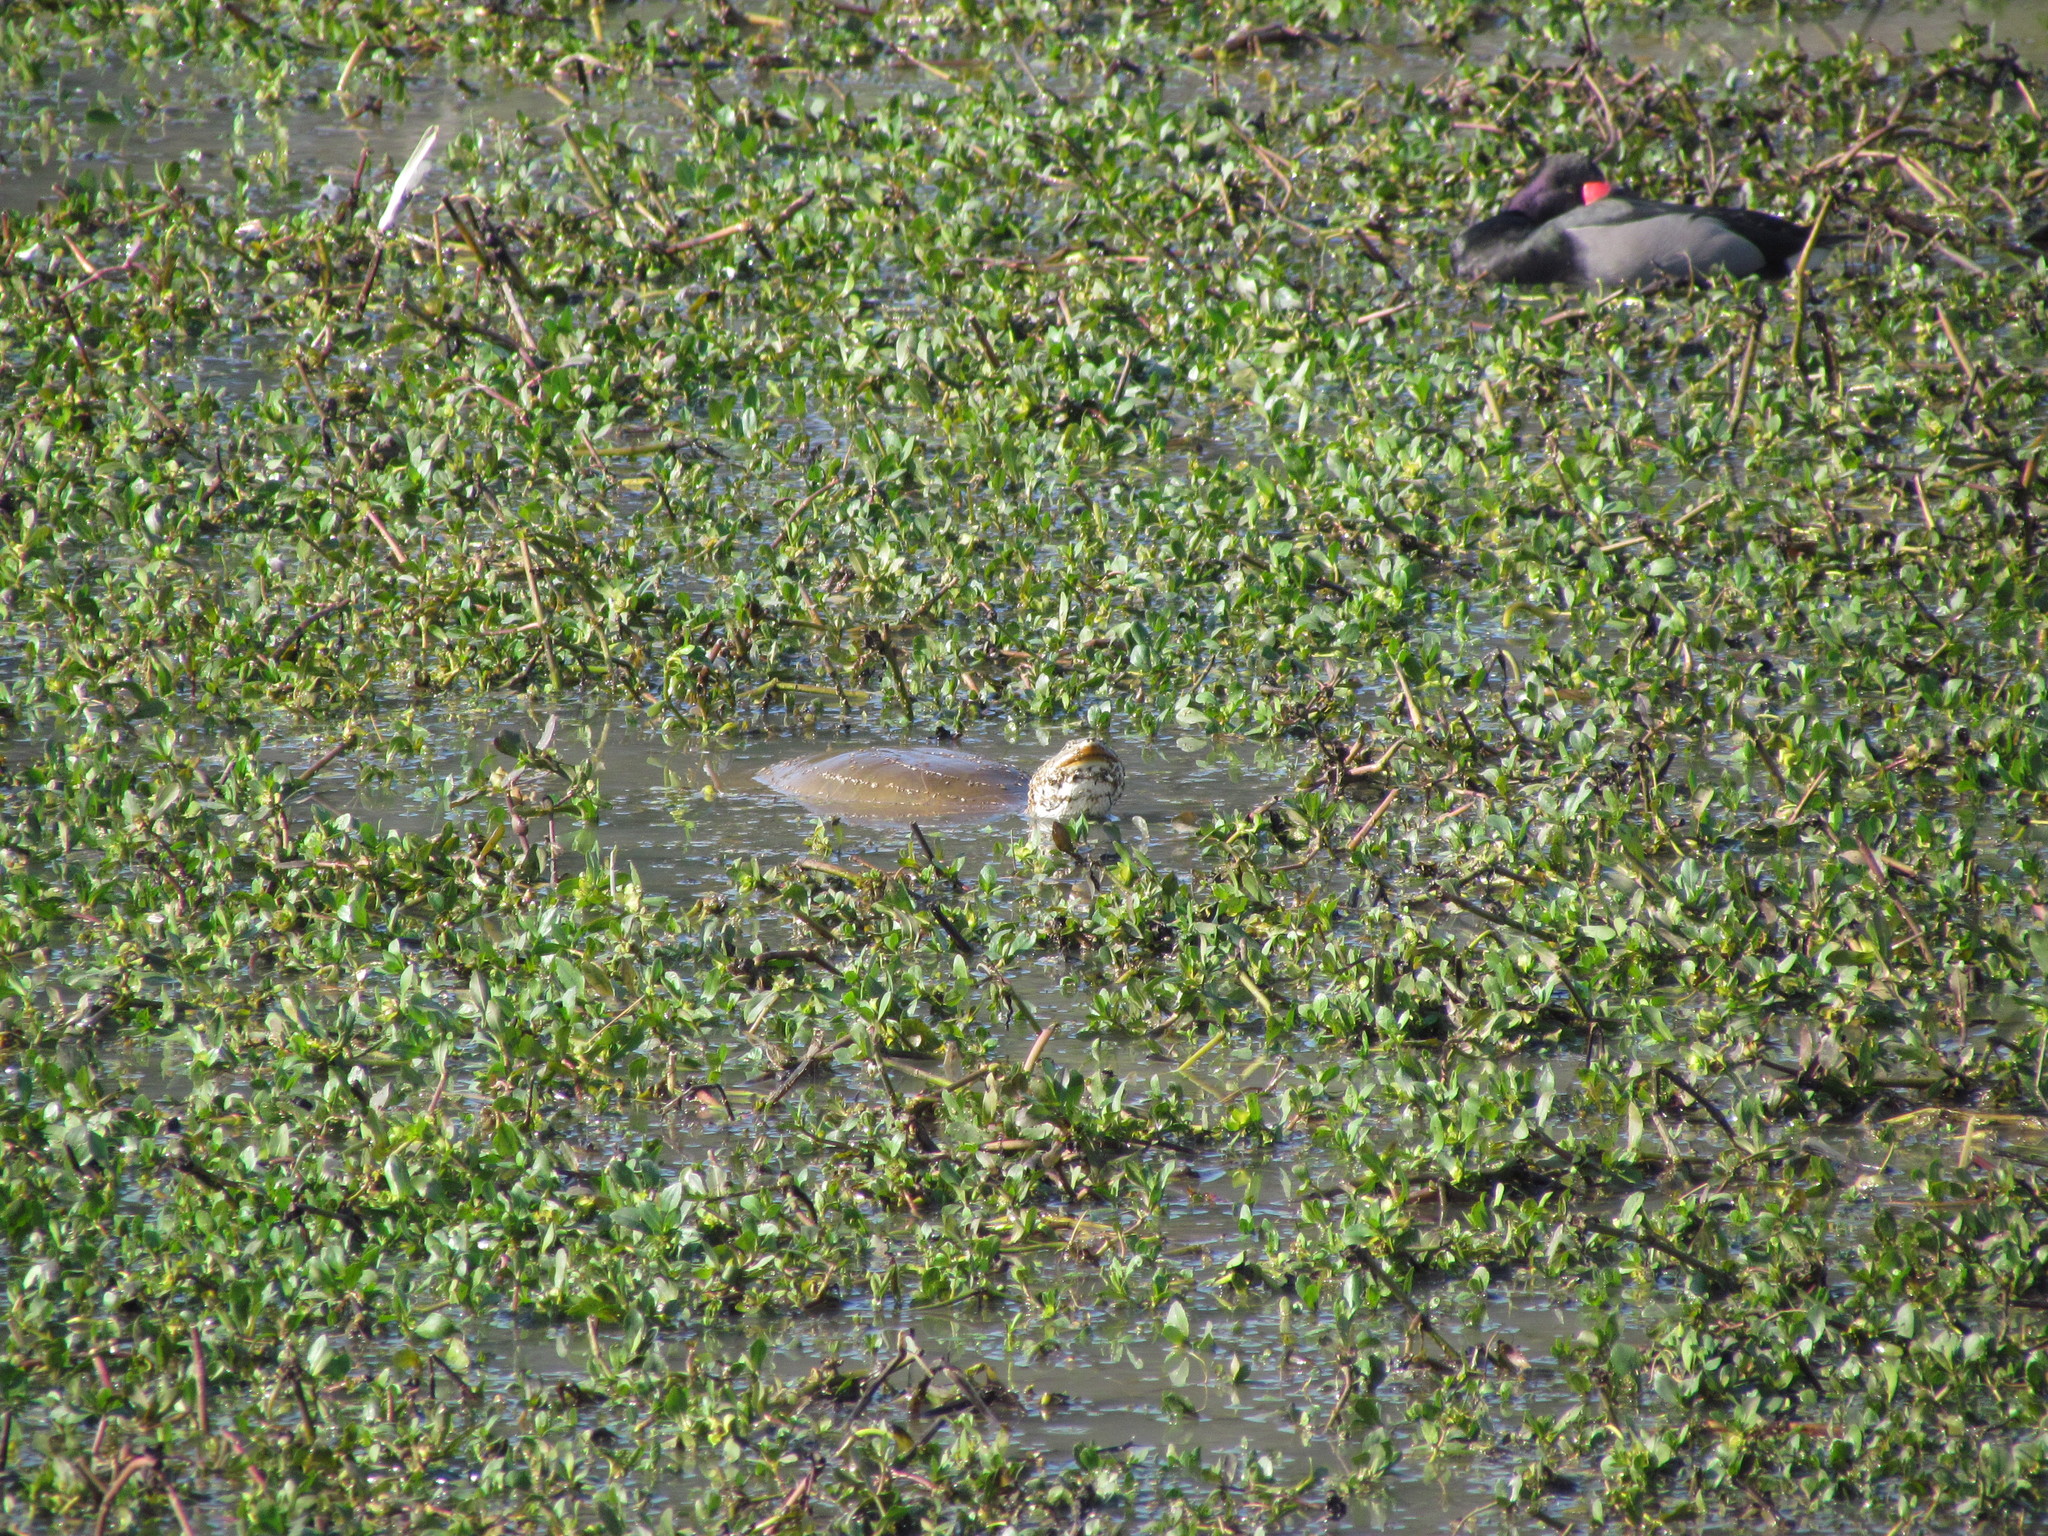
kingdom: Animalia
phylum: Chordata
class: Testudines
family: Chelidae
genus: Phrynops
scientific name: Phrynops hilarii
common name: Side-necked turtle of saint hillaire
